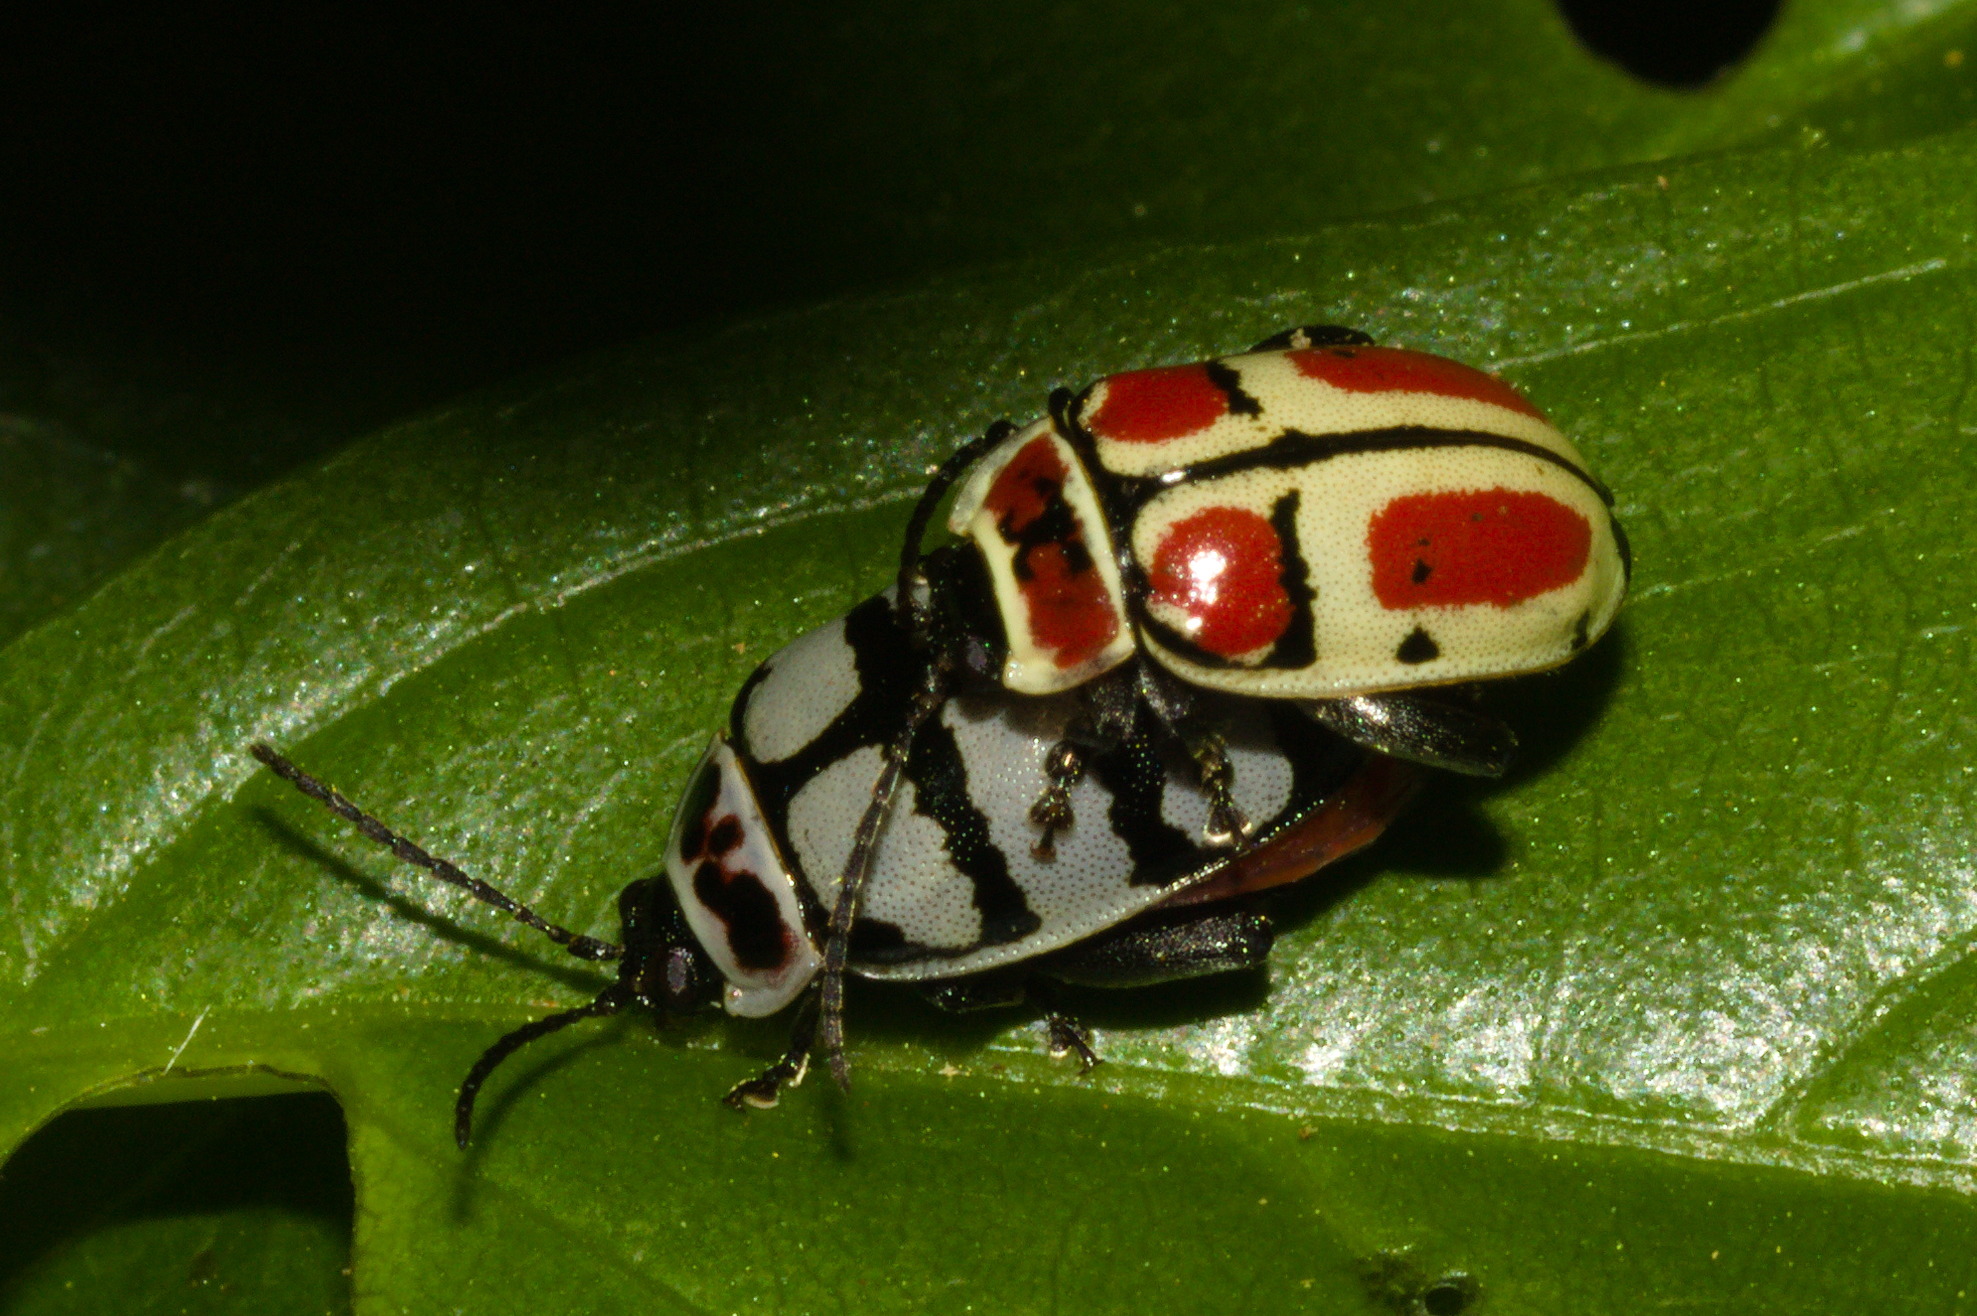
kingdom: Animalia
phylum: Arthropoda
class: Insecta
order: Coleoptera
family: Chrysomelidae
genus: Alagoasa
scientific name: Alagoasa scissa
